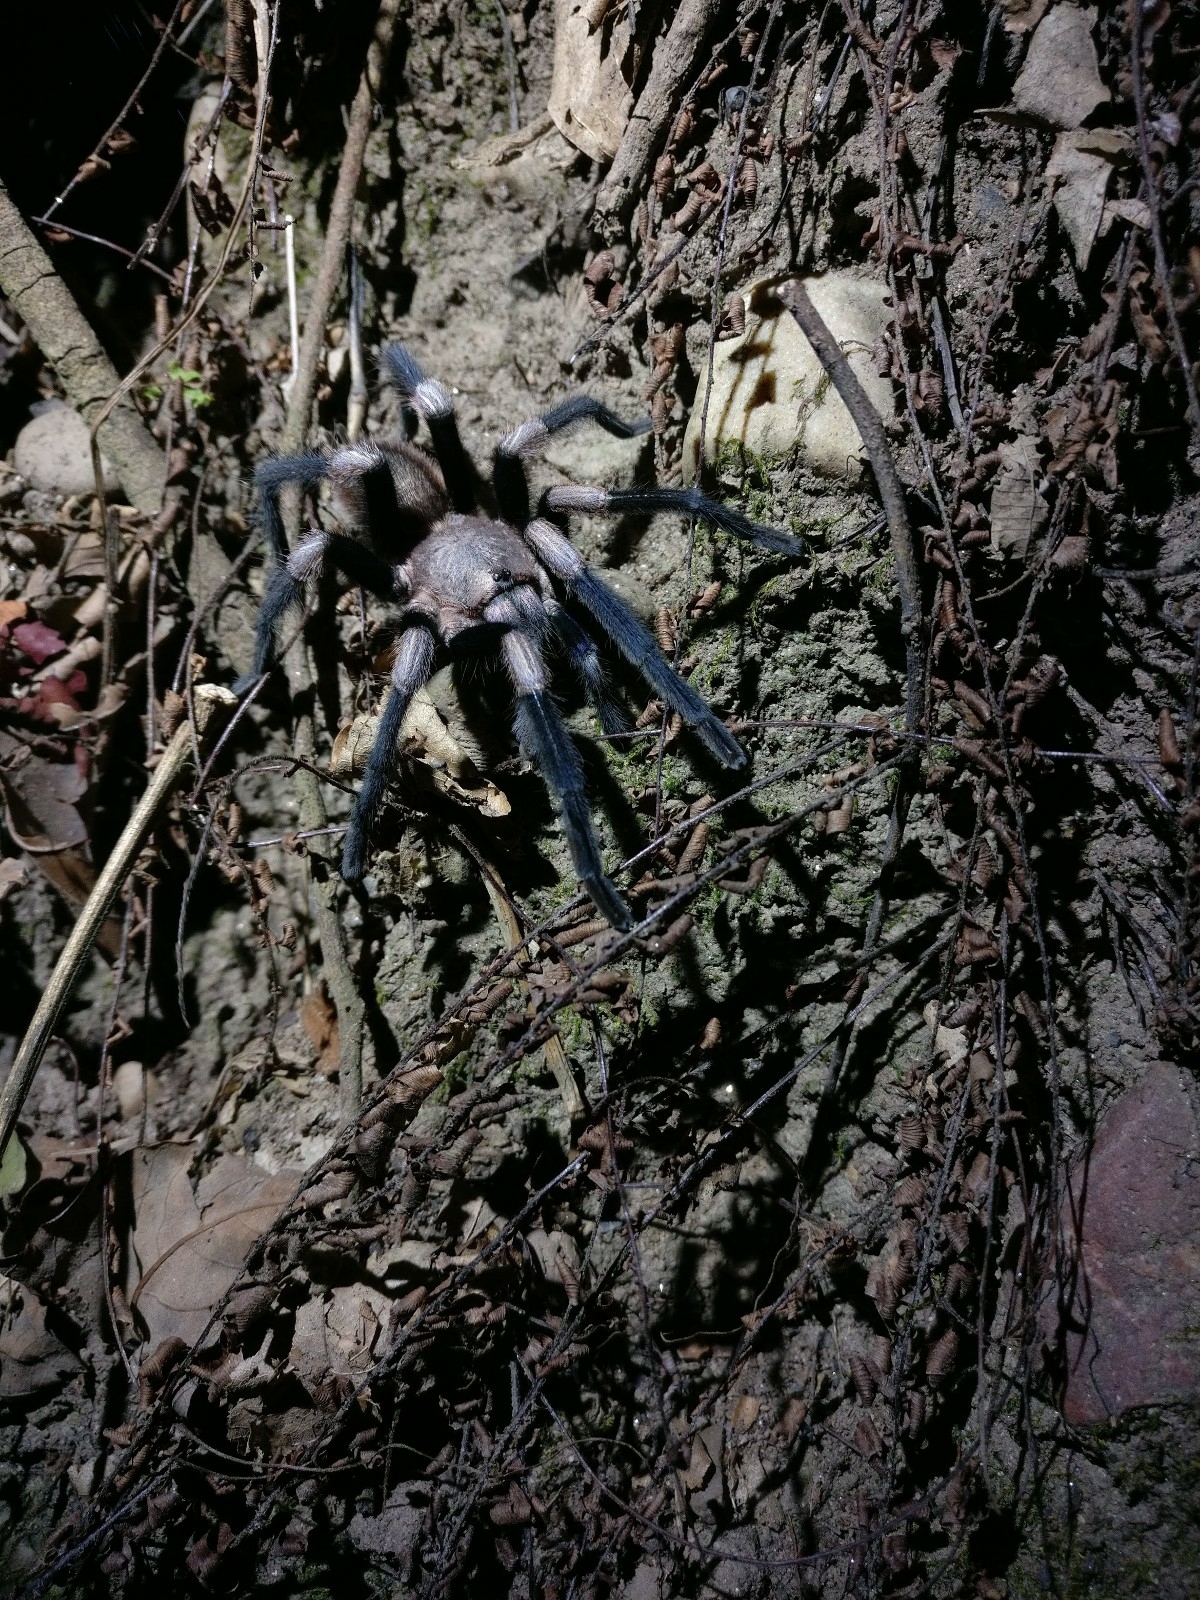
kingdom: Animalia
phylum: Arthropoda
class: Arachnida
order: Araneae
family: Theraphosidae
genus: Haplocosmia
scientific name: Haplocosmia himalayana
